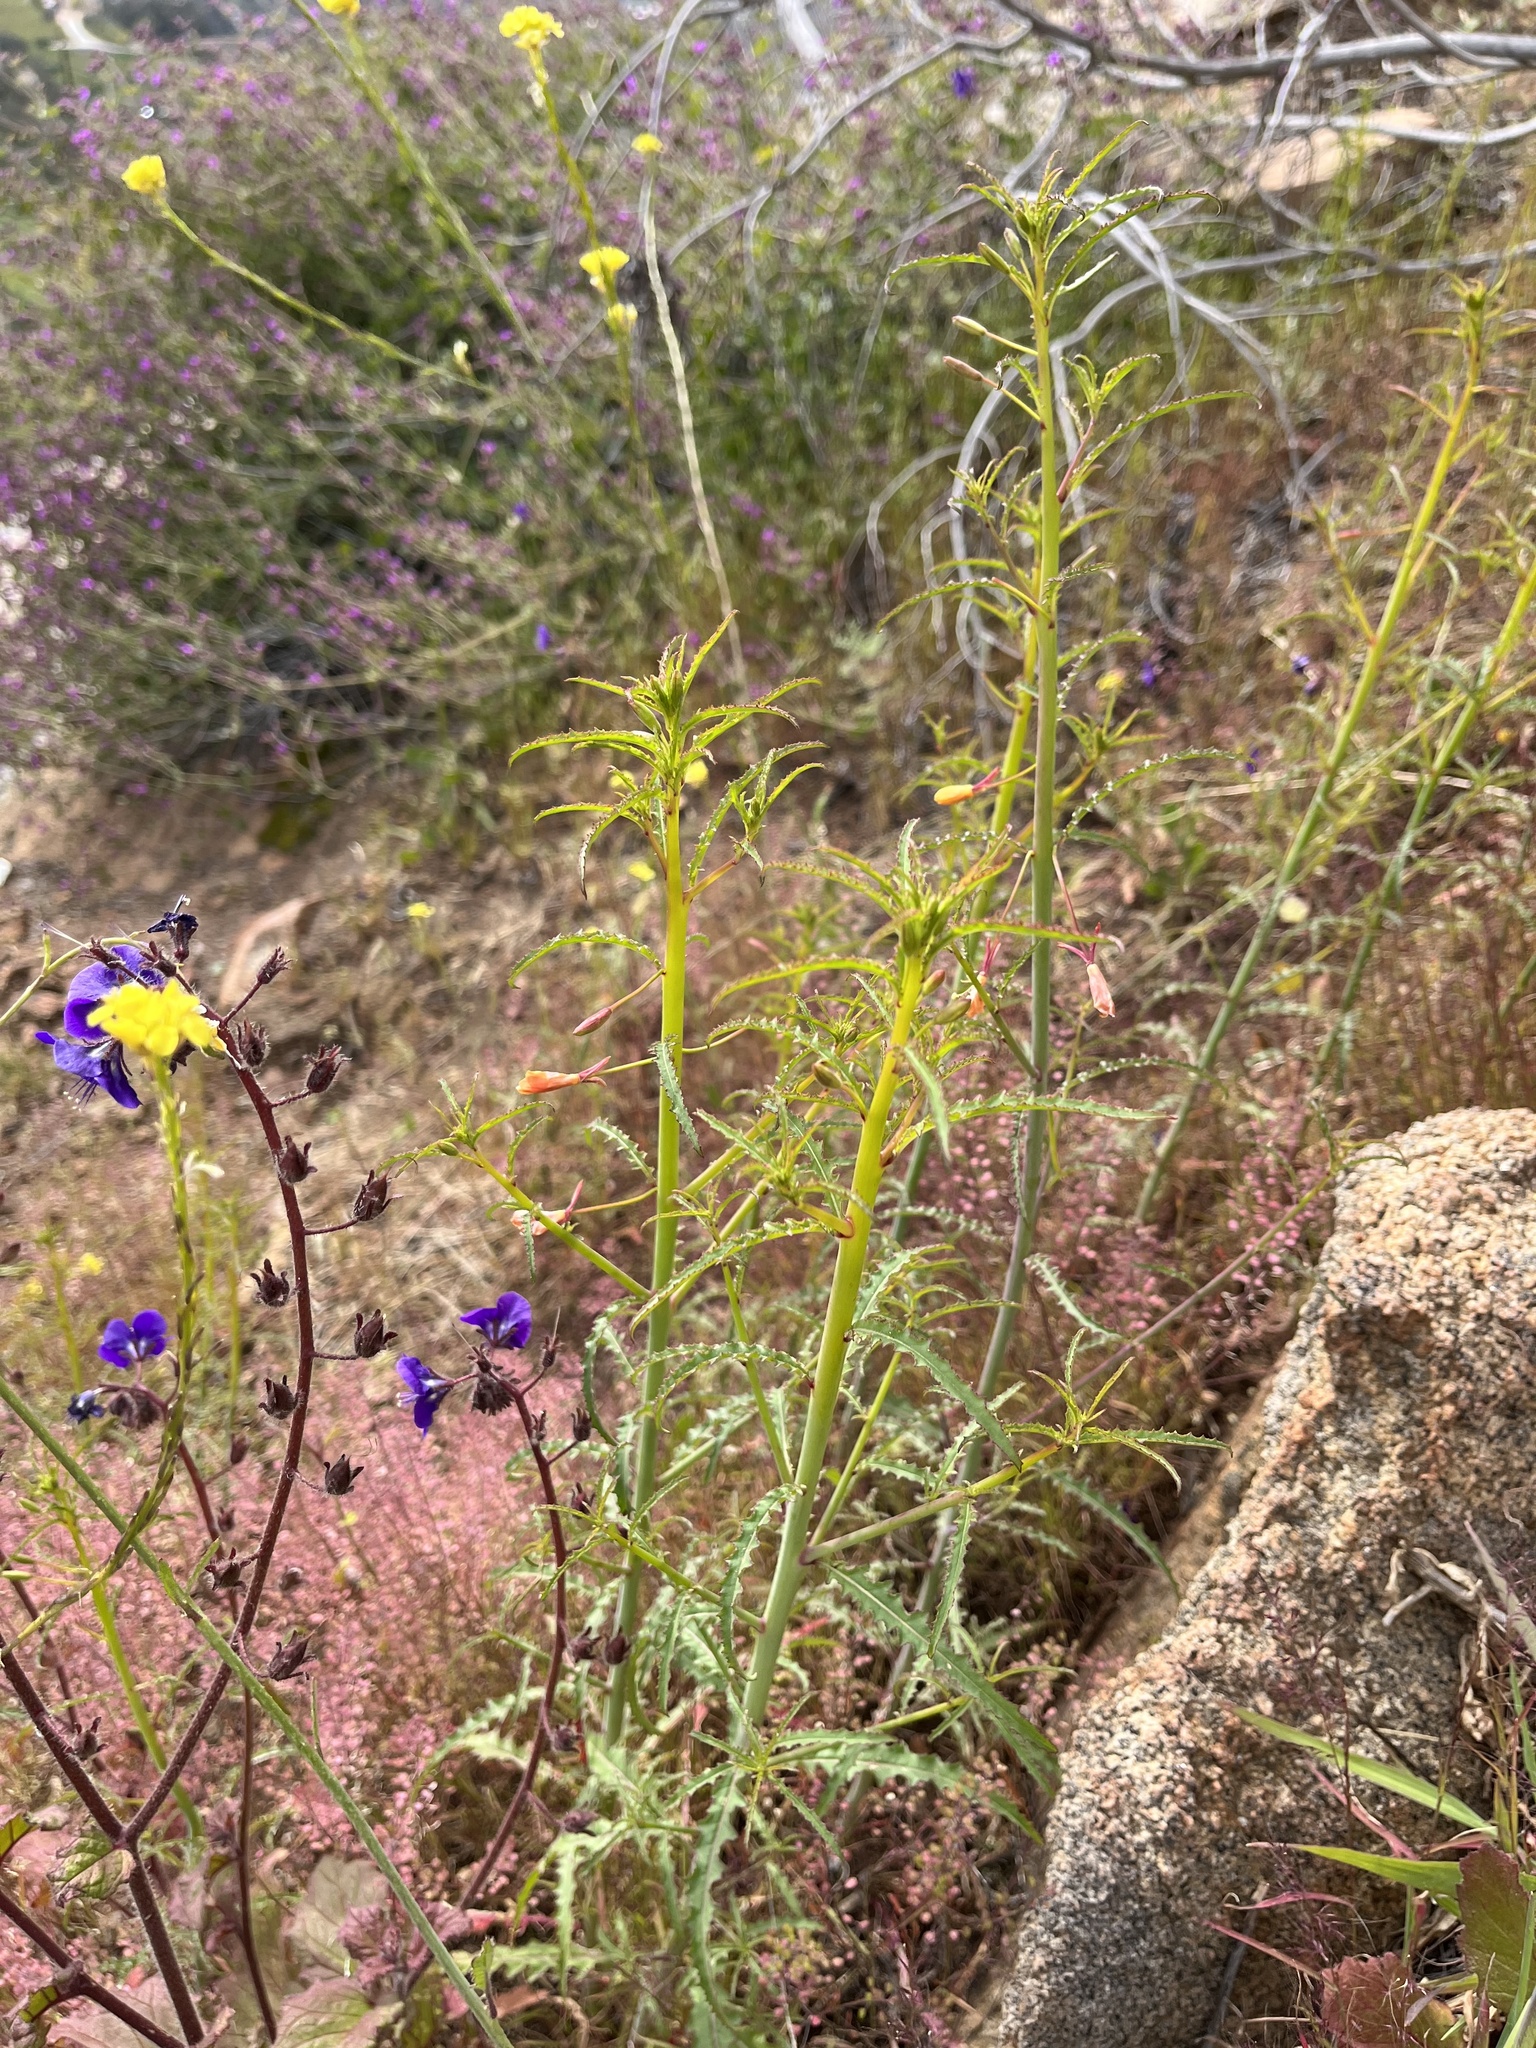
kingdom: Plantae
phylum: Tracheophyta
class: Magnoliopsida
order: Myrtales
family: Onagraceae
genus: Eulobus
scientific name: Eulobus californicus
